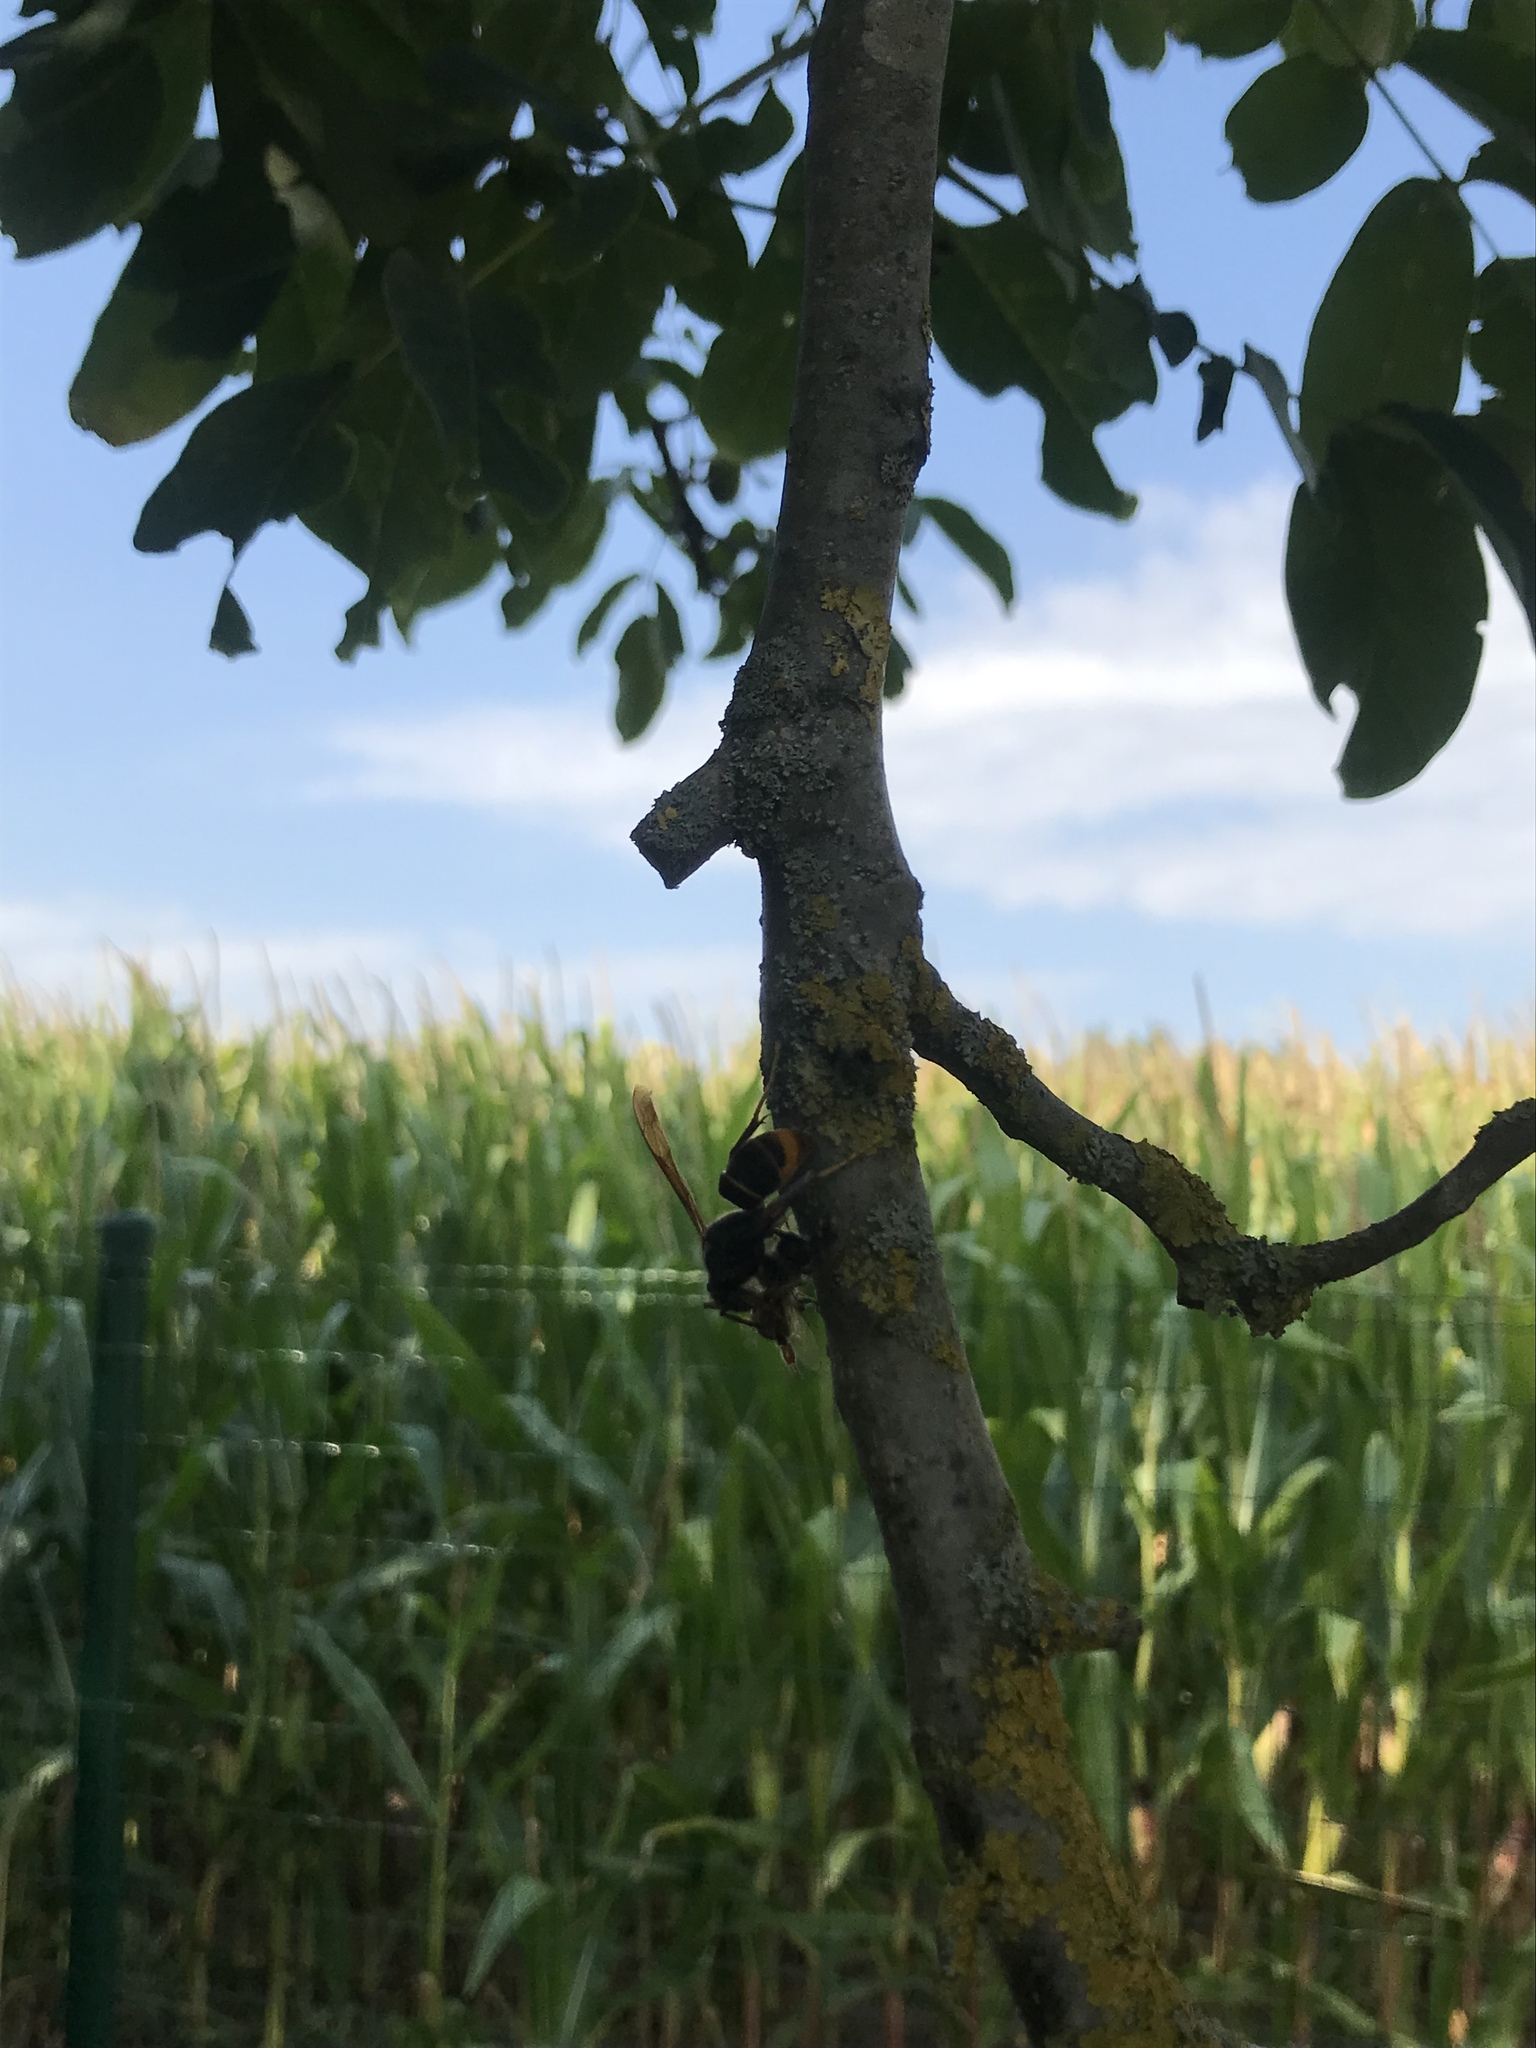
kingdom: Animalia
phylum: Arthropoda
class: Insecta
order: Hymenoptera
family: Vespidae
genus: Vespa
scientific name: Vespa velutina
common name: Asian hornet
